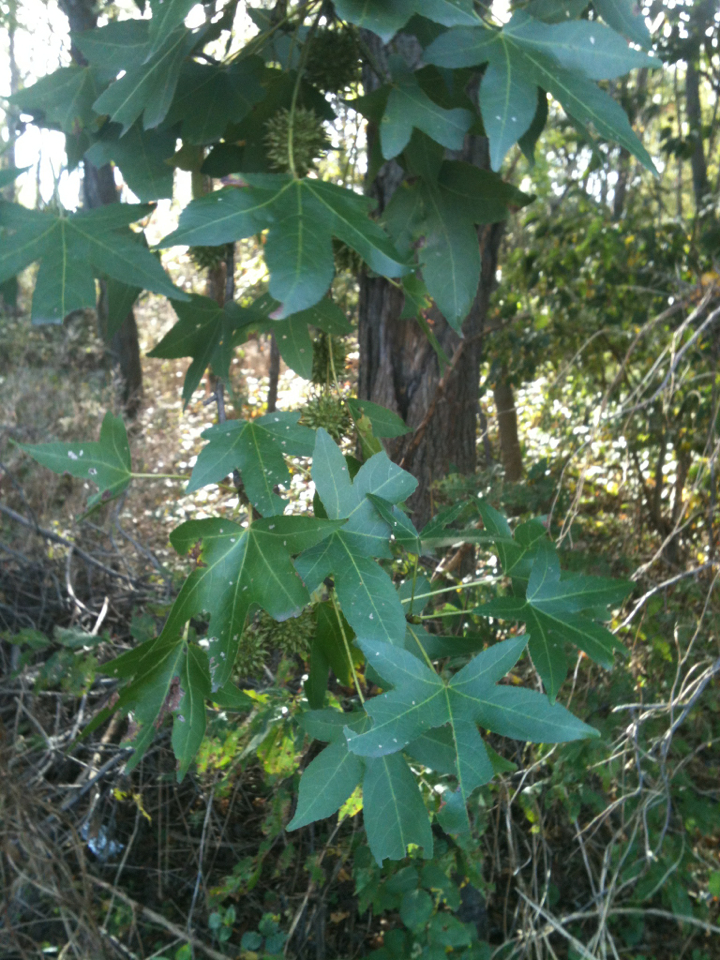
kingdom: Plantae
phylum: Tracheophyta
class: Magnoliopsida
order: Saxifragales
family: Altingiaceae
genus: Liquidambar
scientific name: Liquidambar styraciflua
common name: Sweet gum
